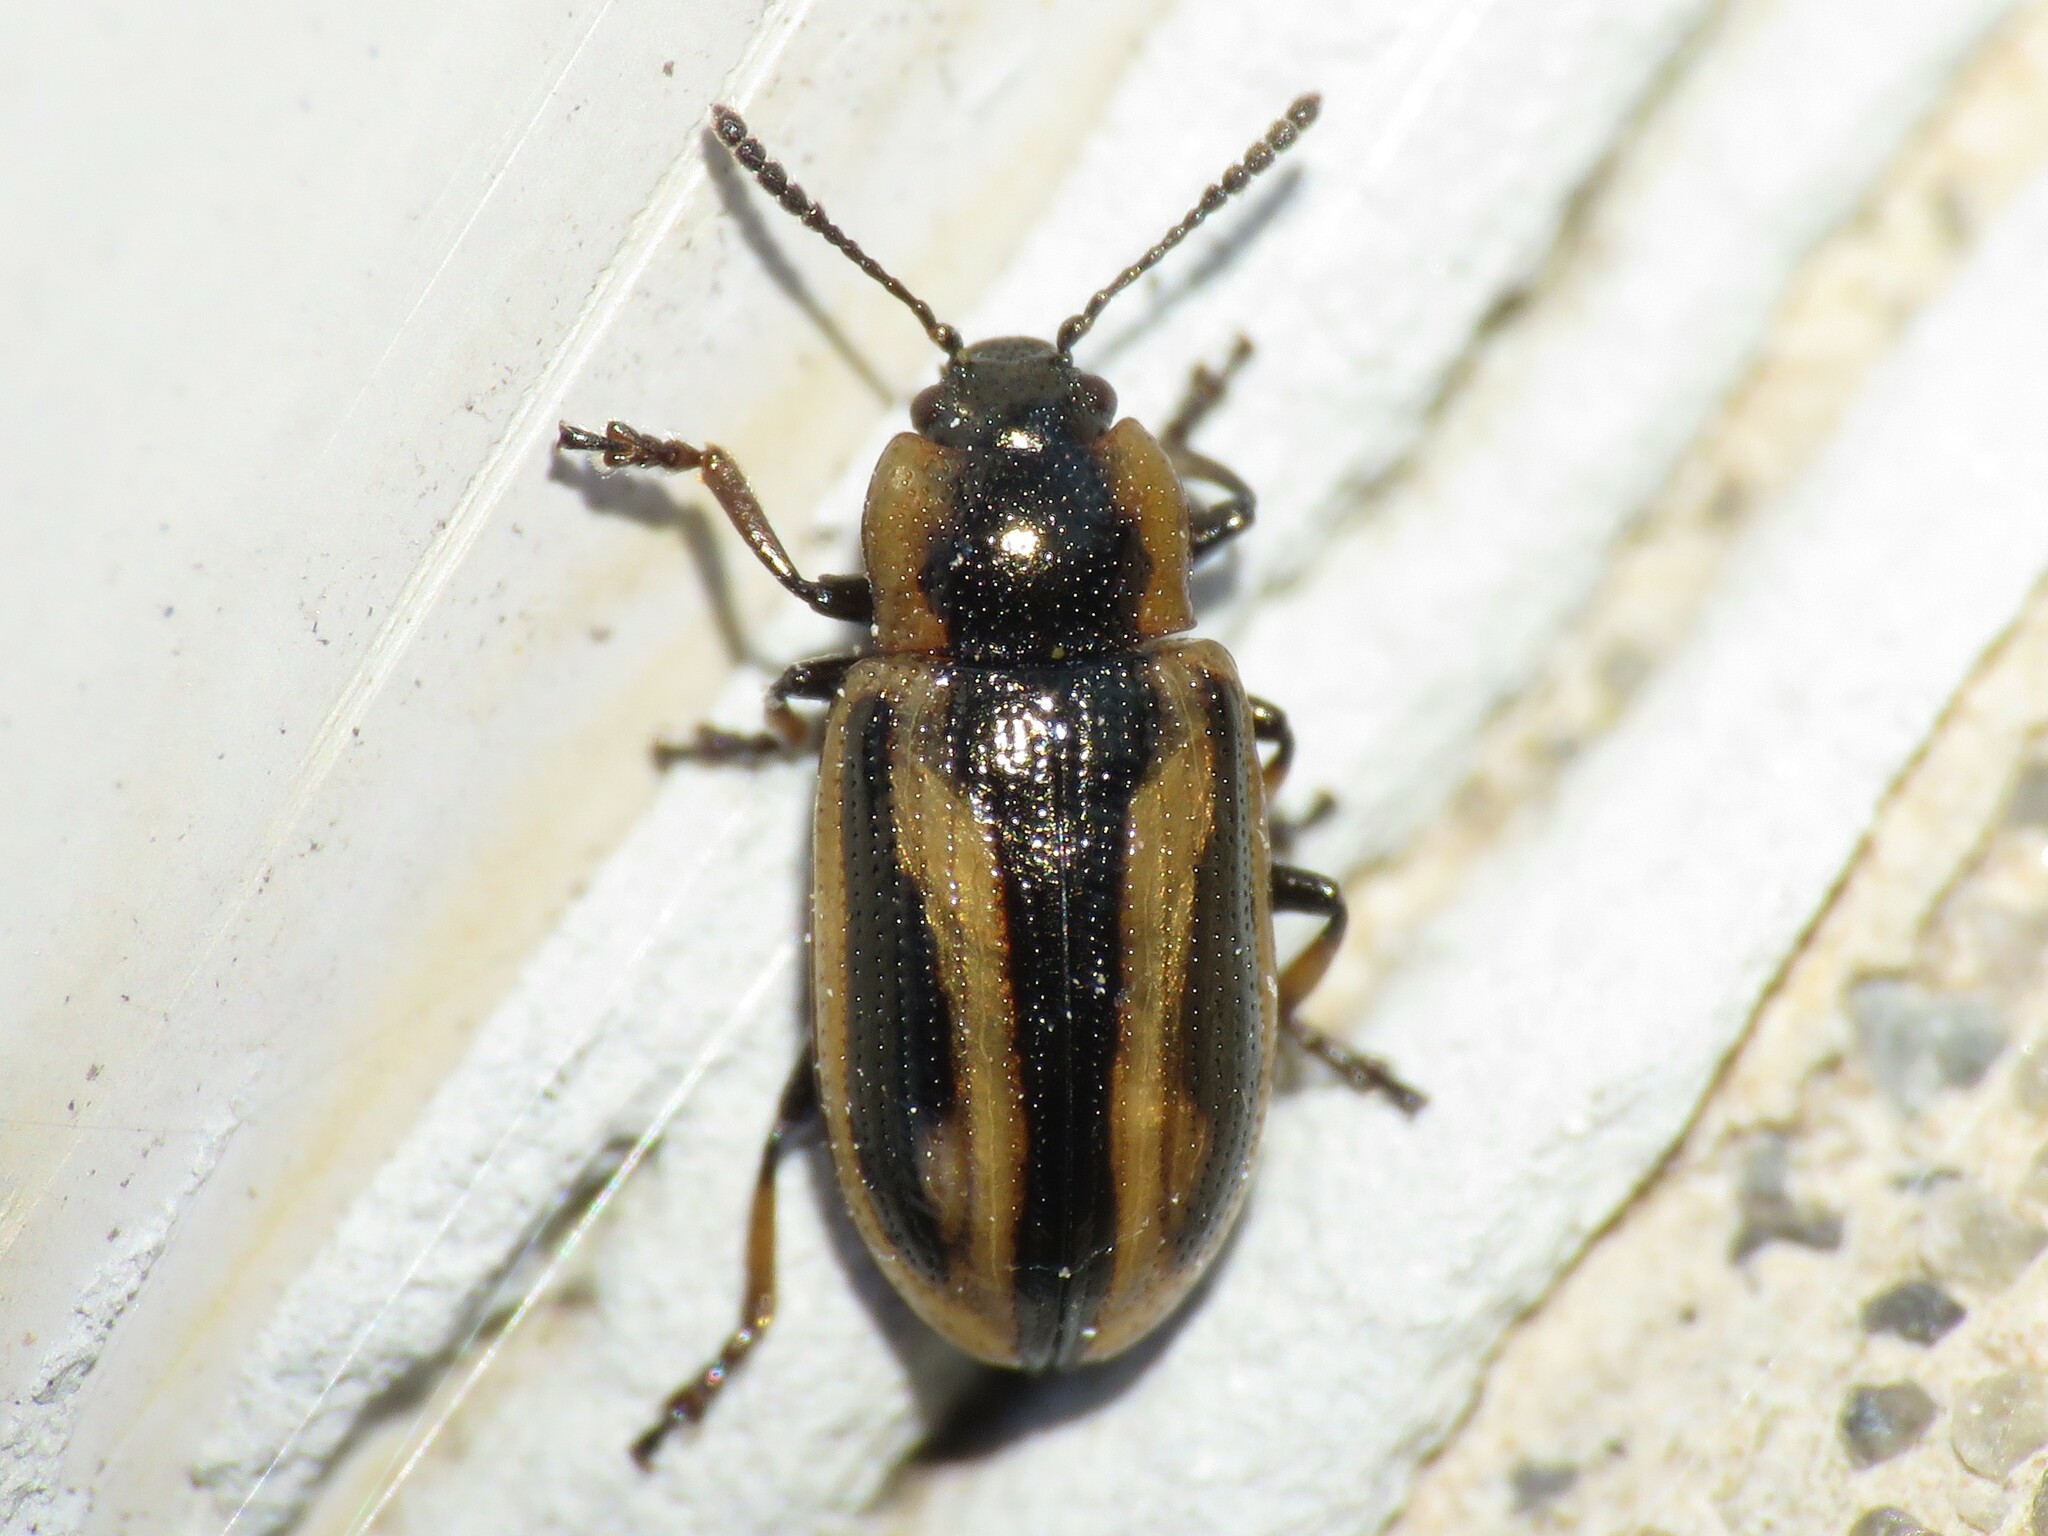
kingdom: Animalia
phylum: Arthropoda
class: Insecta
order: Coleoptera
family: Chrysomelidae
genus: Prasocuris
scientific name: Prasocuris vittata
